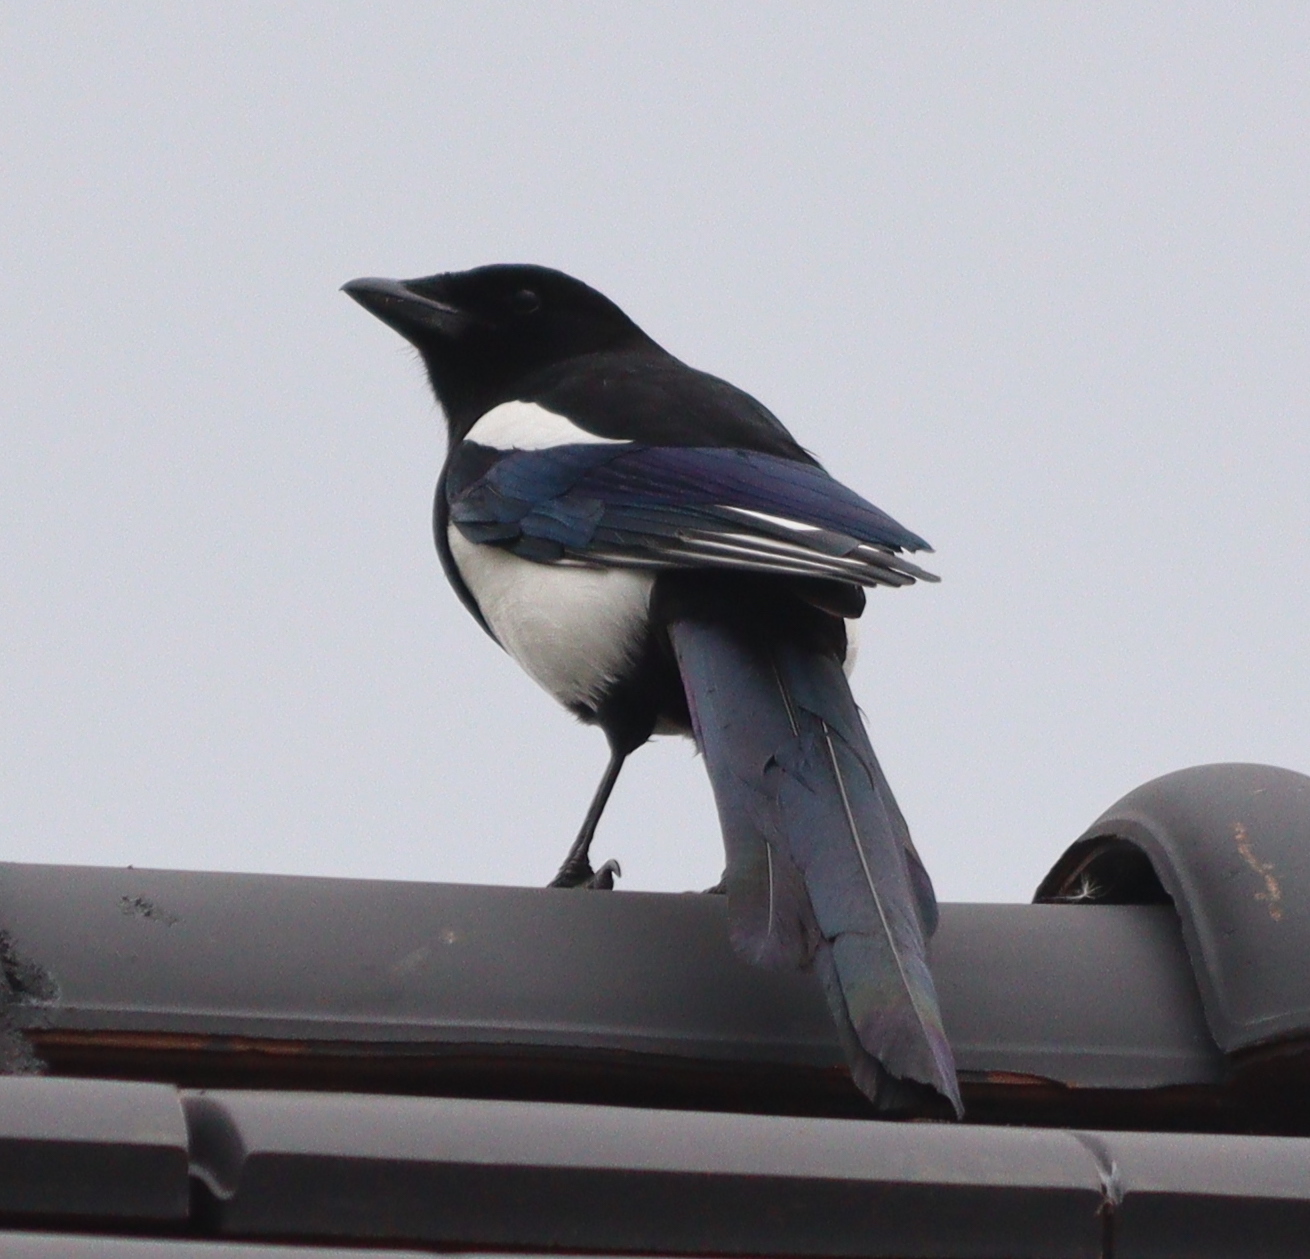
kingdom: Animalia
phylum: Chordata
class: Aves
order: Passeriformes
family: Corvidae
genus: Pica
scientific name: Pica pica
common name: Eurasian magpie
